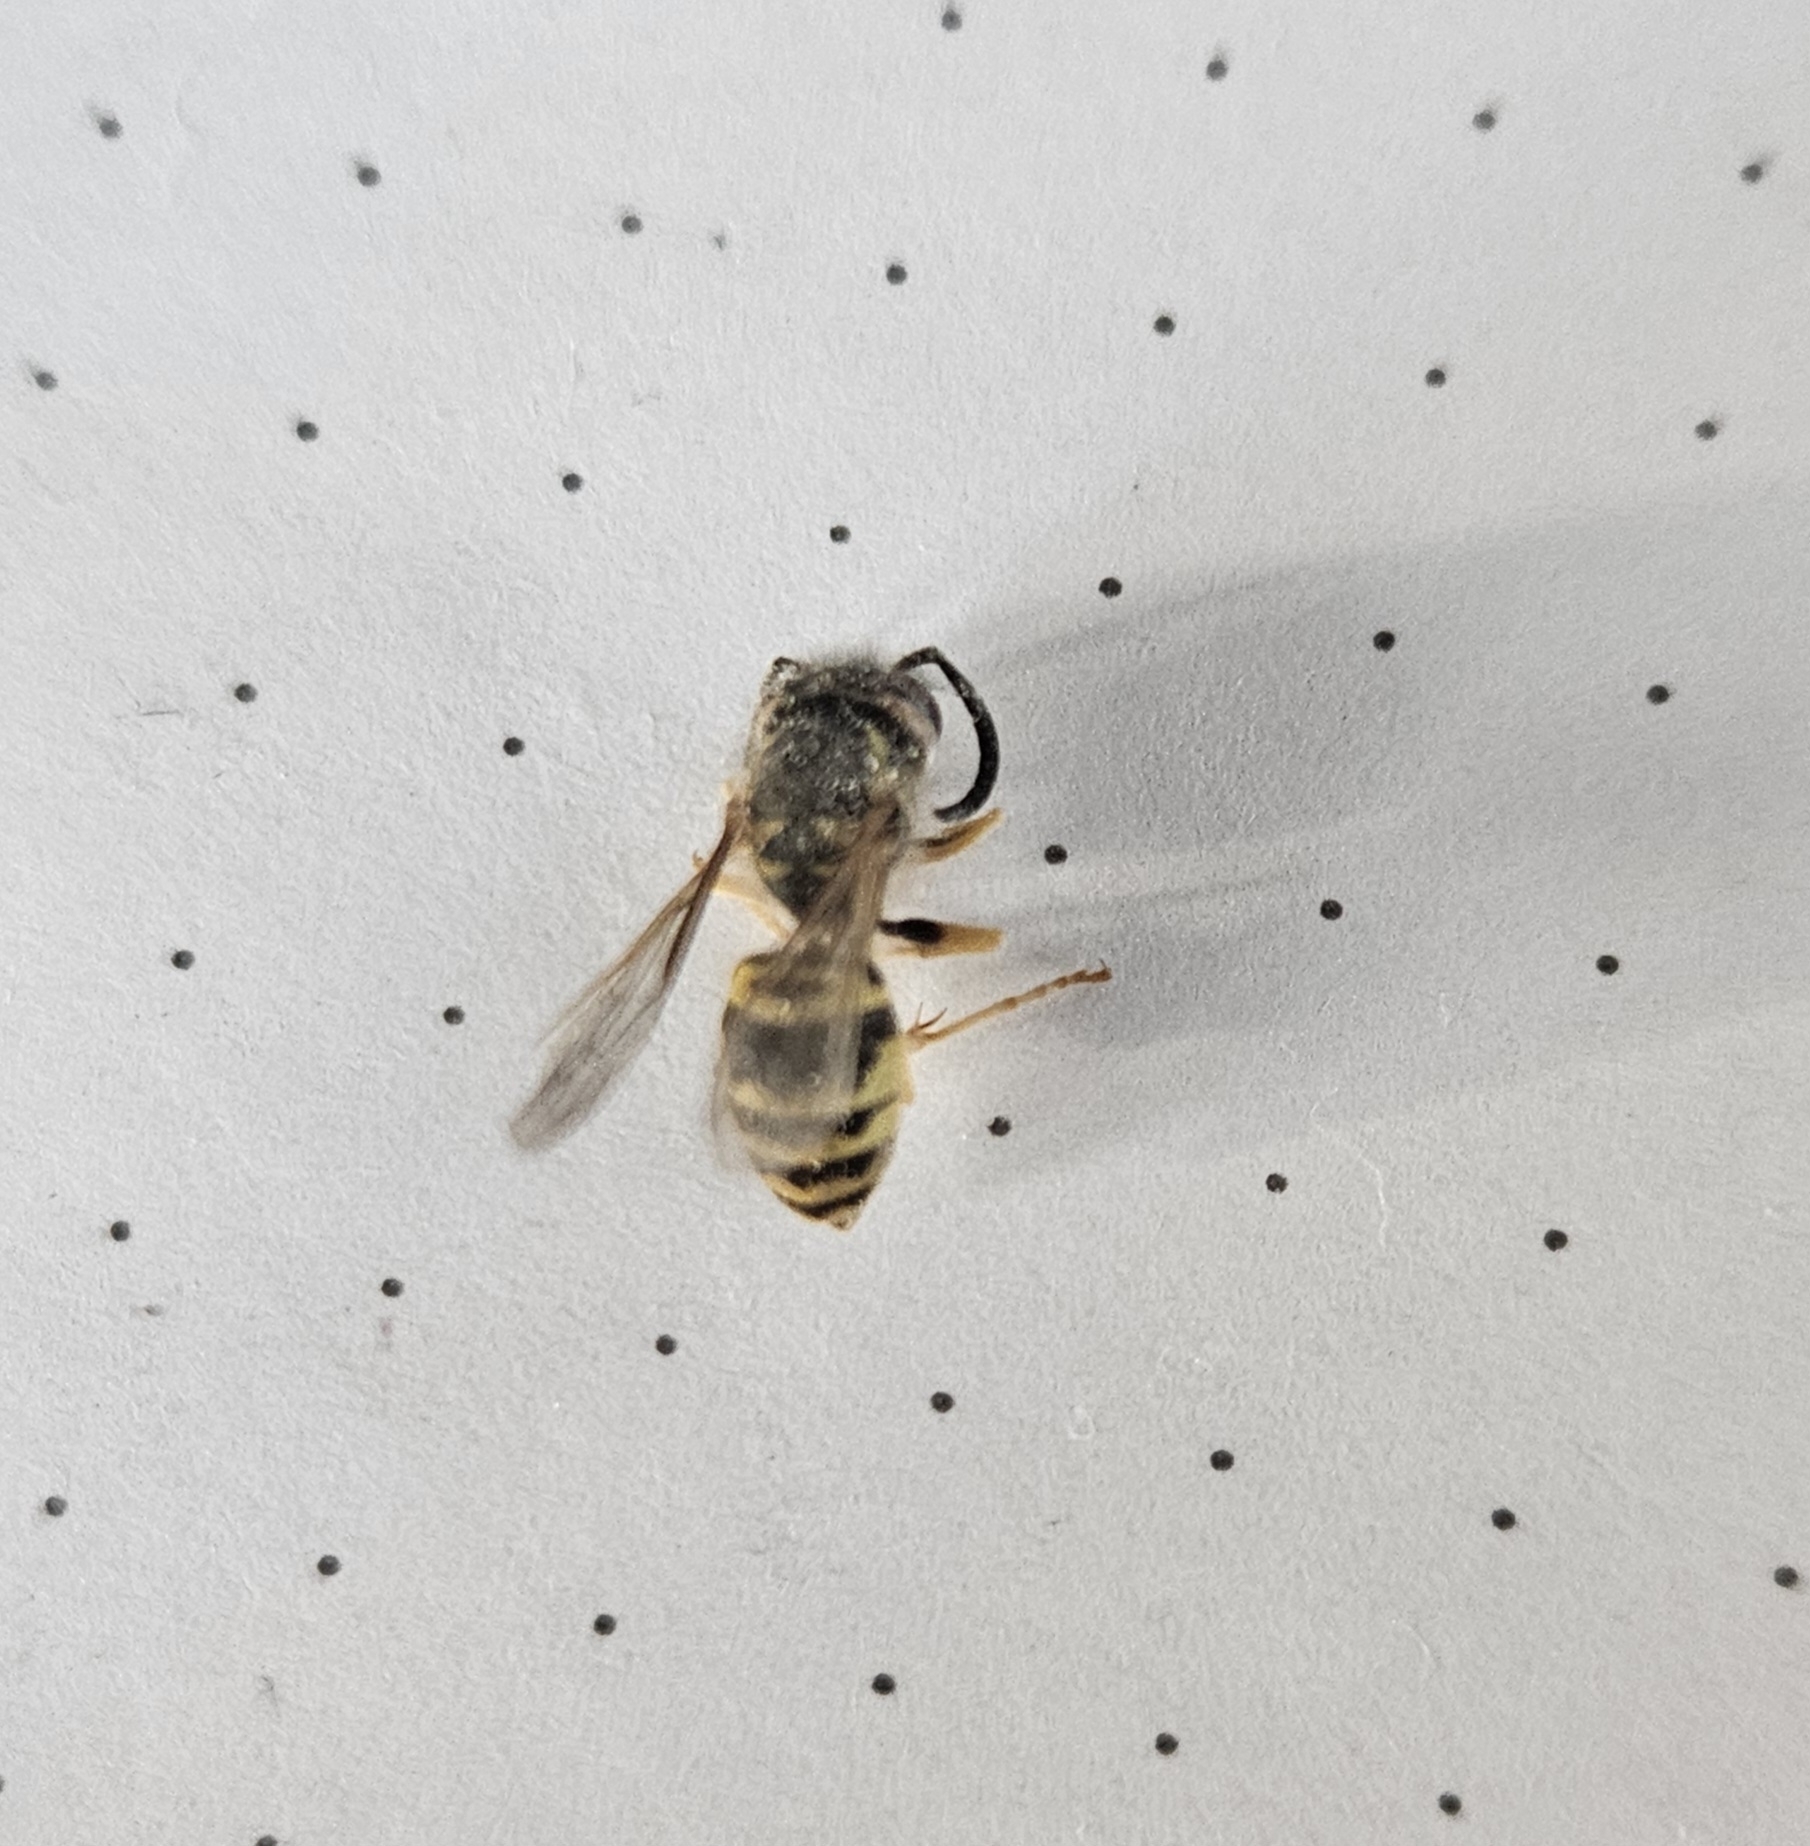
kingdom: Animalia
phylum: Arthropoda
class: Insecta
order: Hymenoptera
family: Vespidae
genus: Vespula
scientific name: Vespula maculifrons
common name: Eastern yellowjacket
